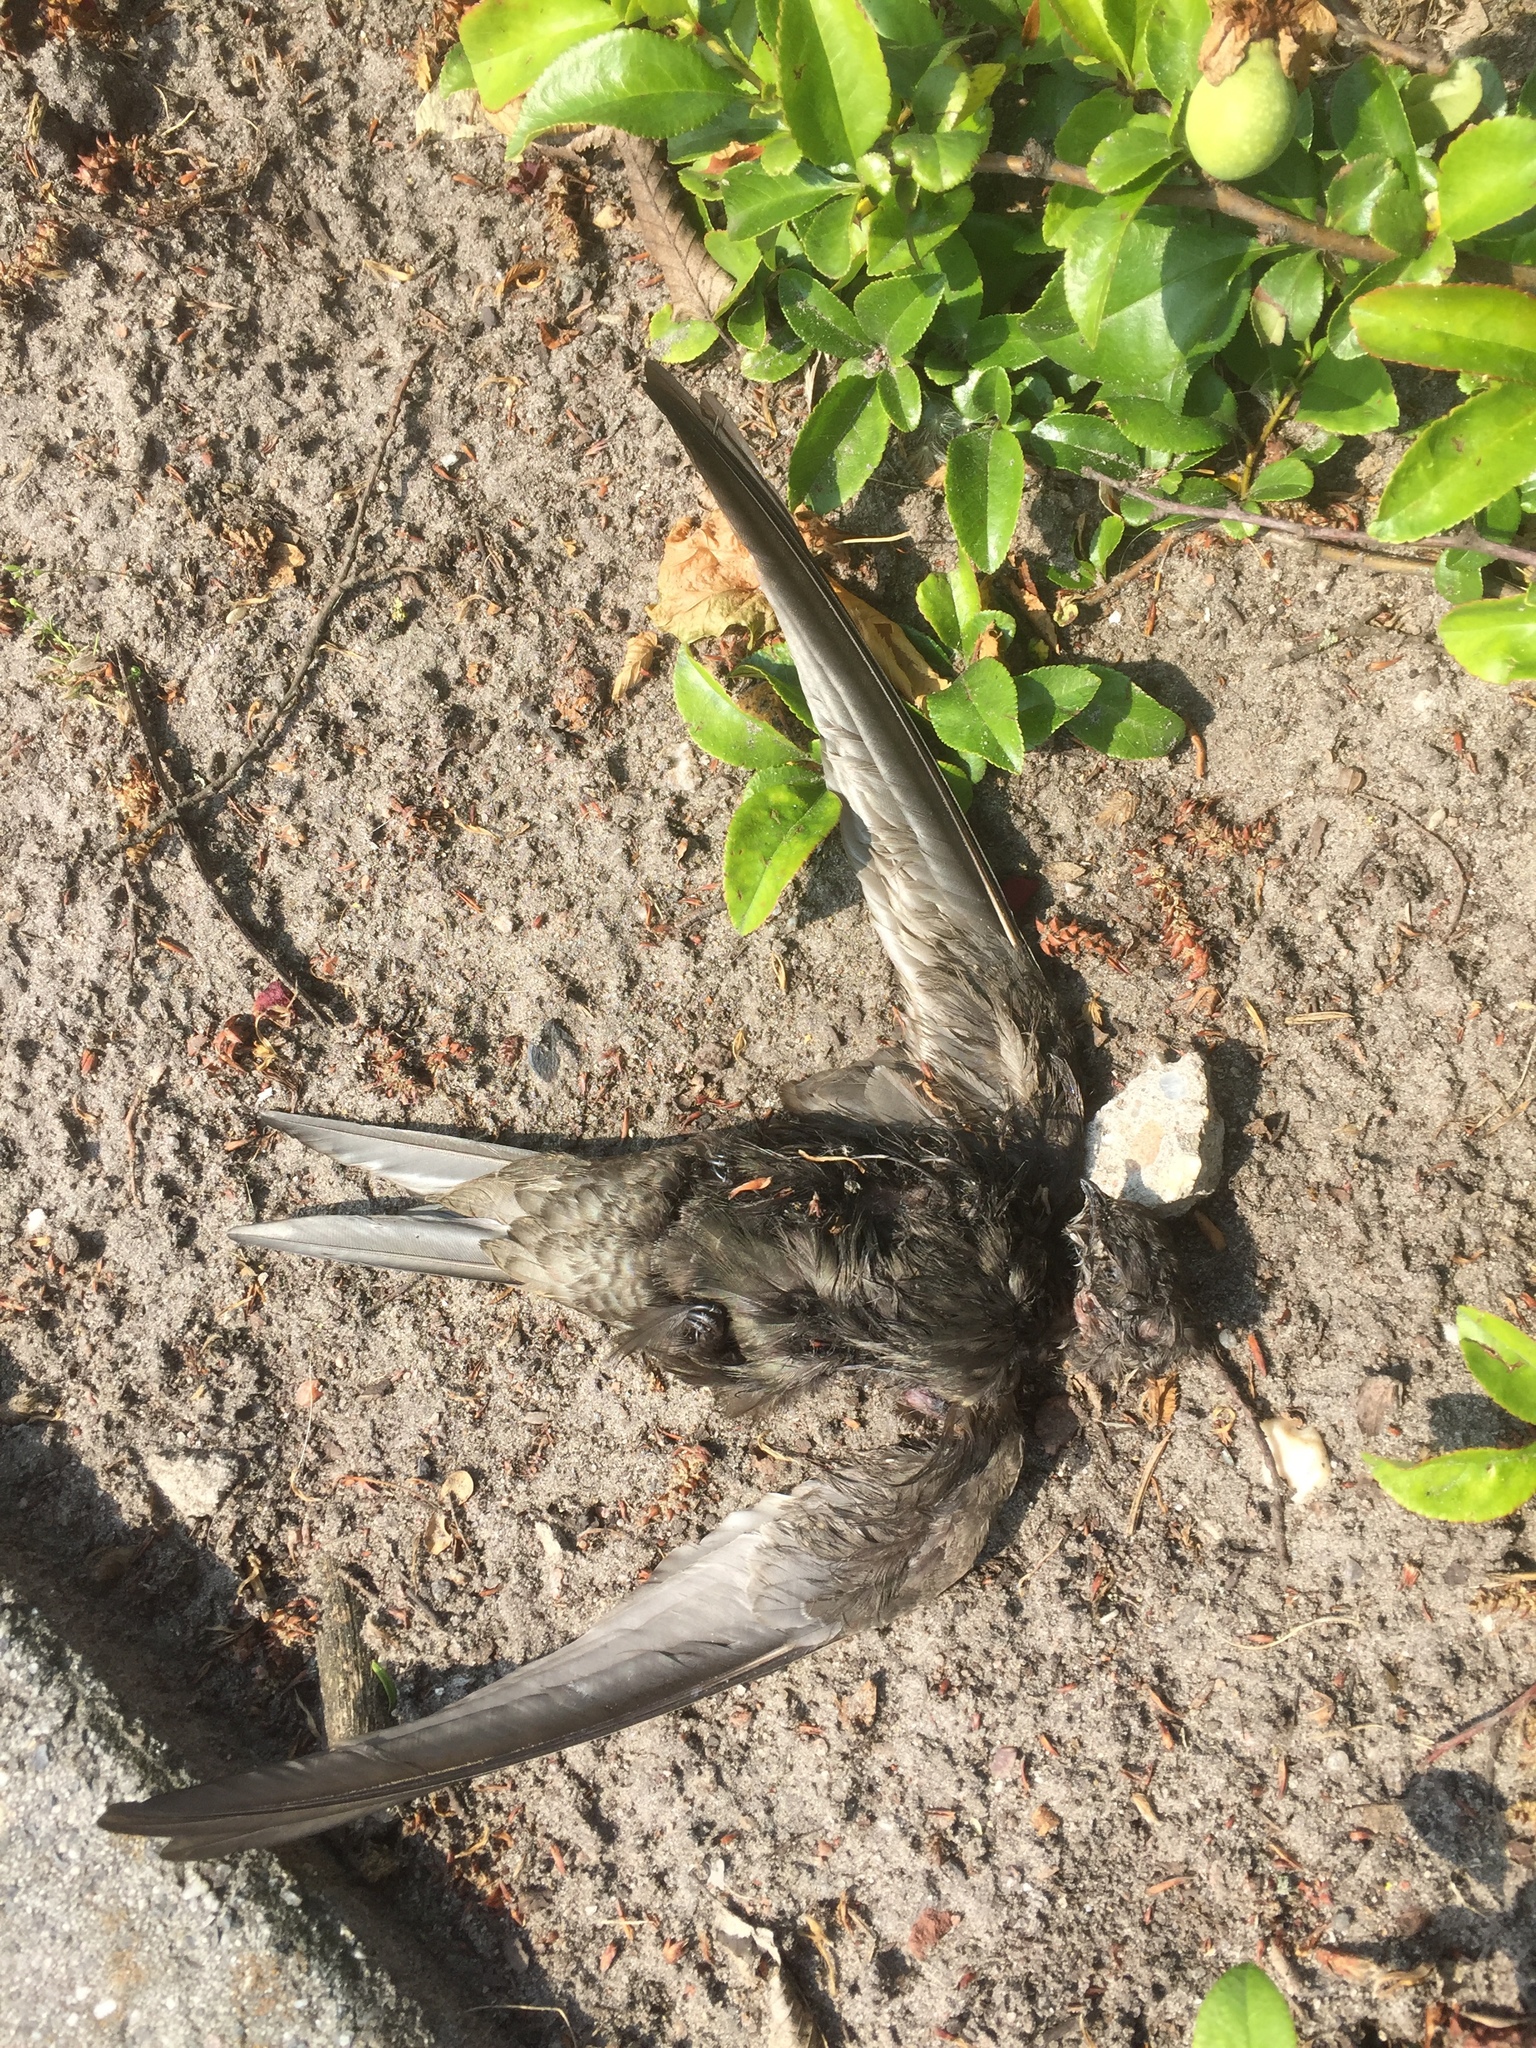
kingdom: Animalia
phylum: Chordata
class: Aves
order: Apodiformes
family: Apodidae
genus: Apus
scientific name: Apus apus
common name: Common swift
